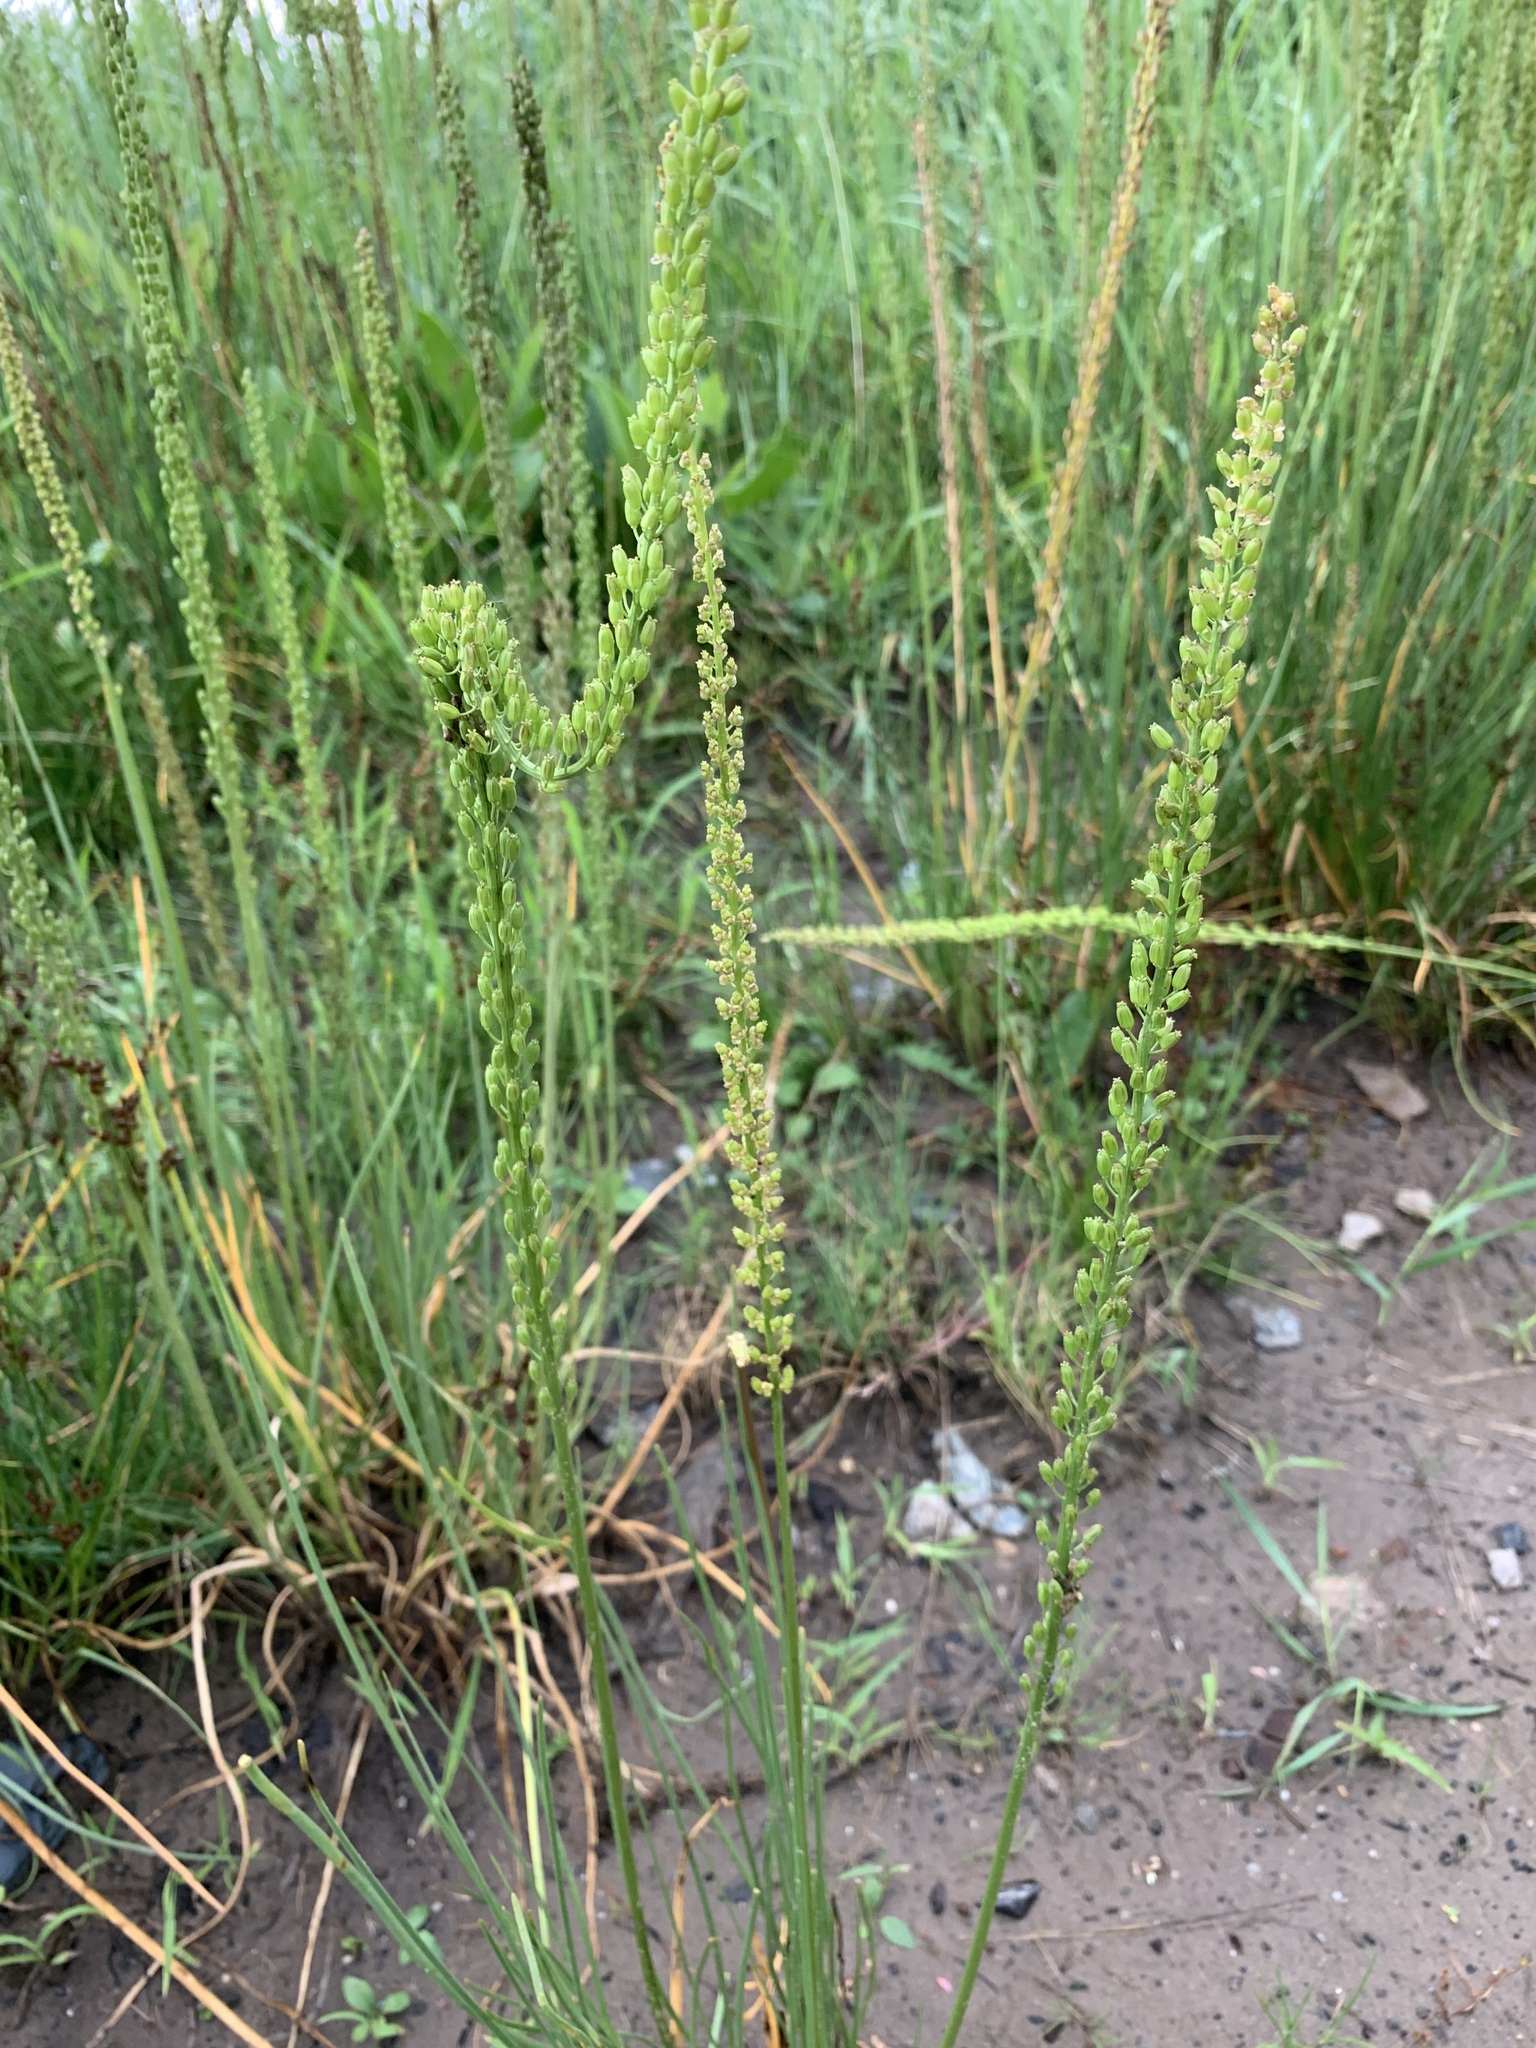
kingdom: Plantae
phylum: Tracheophyta
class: Liliopsida
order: Alismatales
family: Juncaginaceae
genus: Triglochin
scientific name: Triglochin maritima
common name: Sea arrowgrass
